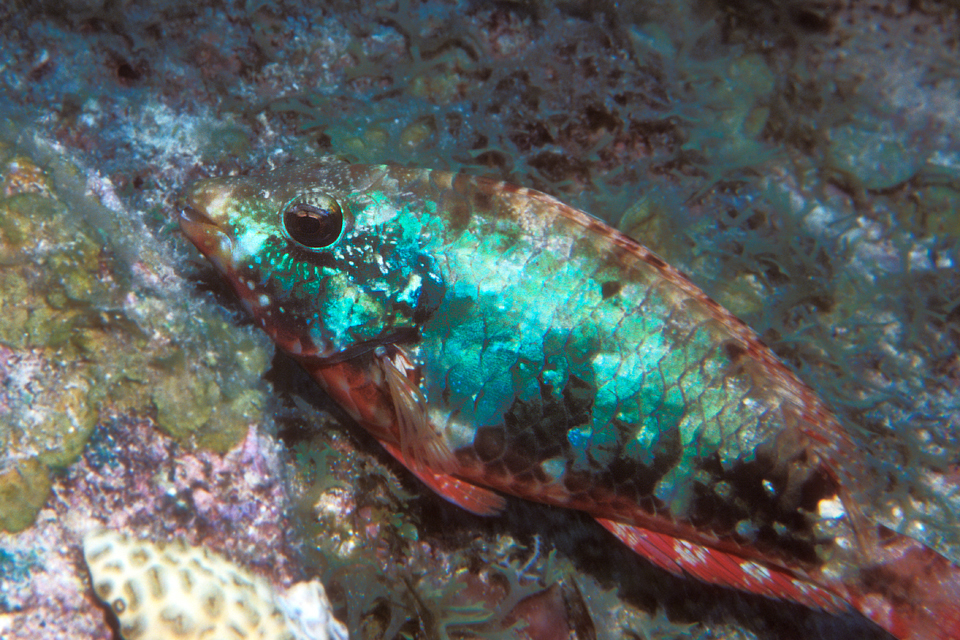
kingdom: Animalia
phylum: Chordata
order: Perciformes
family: Scaridae
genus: Sparisoma
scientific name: Sparisoma aurofrenatum
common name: Redband parrotfish
